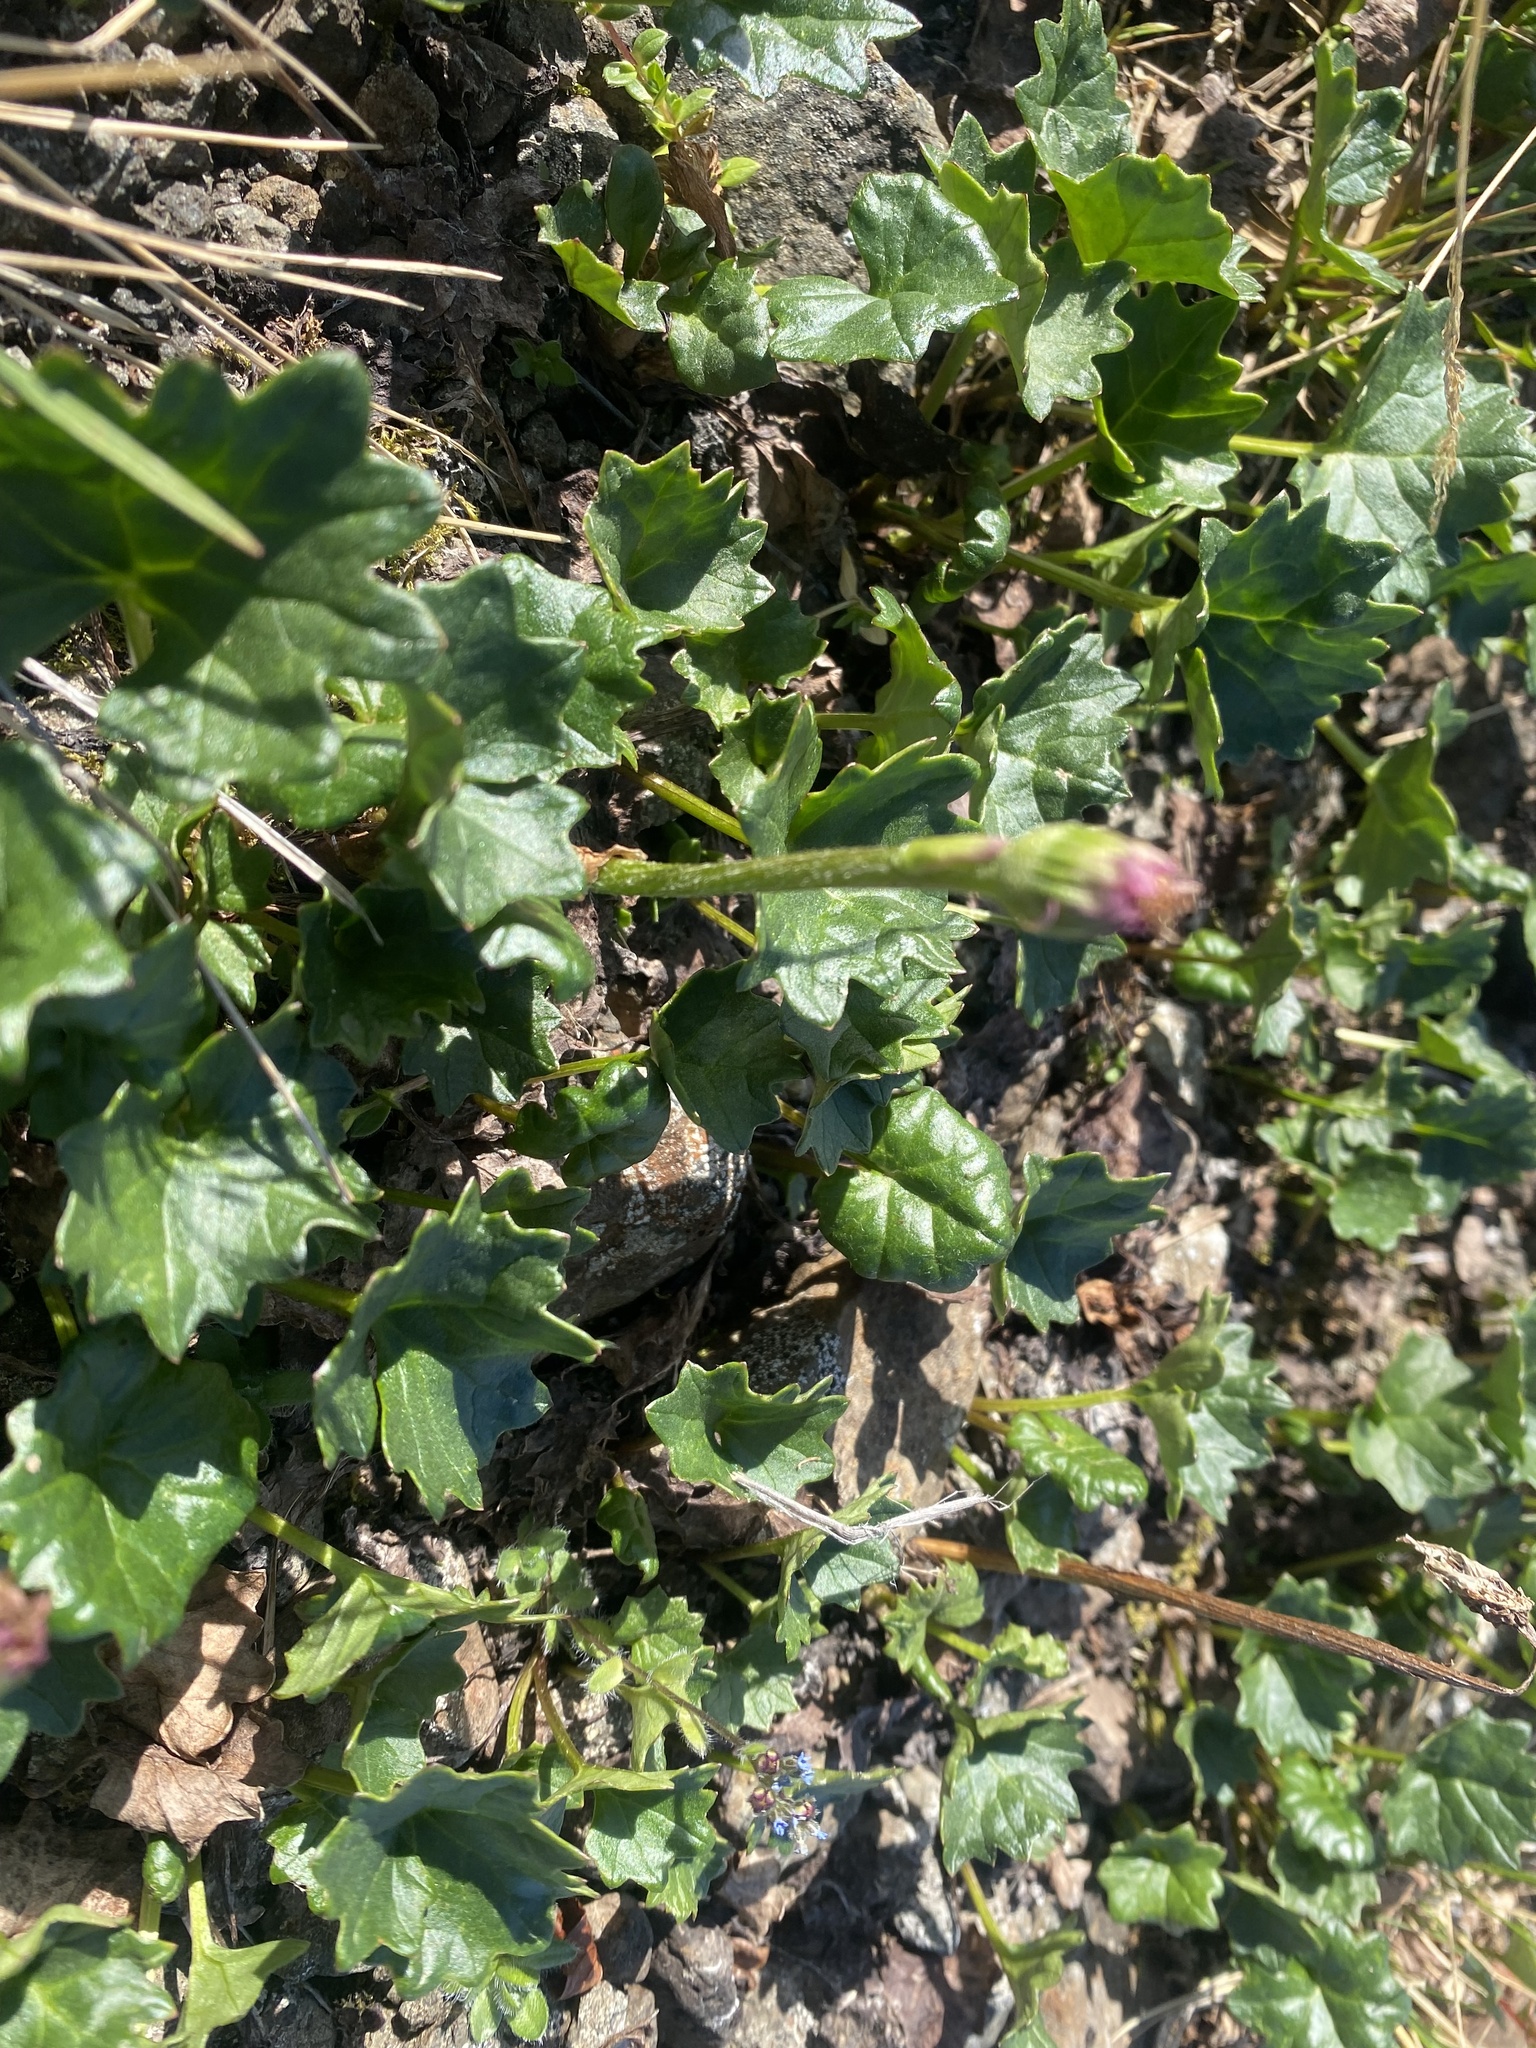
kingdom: Plantae
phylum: Tracheophyta
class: Magnoliopsida
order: Asterales
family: Asteraceae
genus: Endocellion
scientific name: Endocellion glaciale
